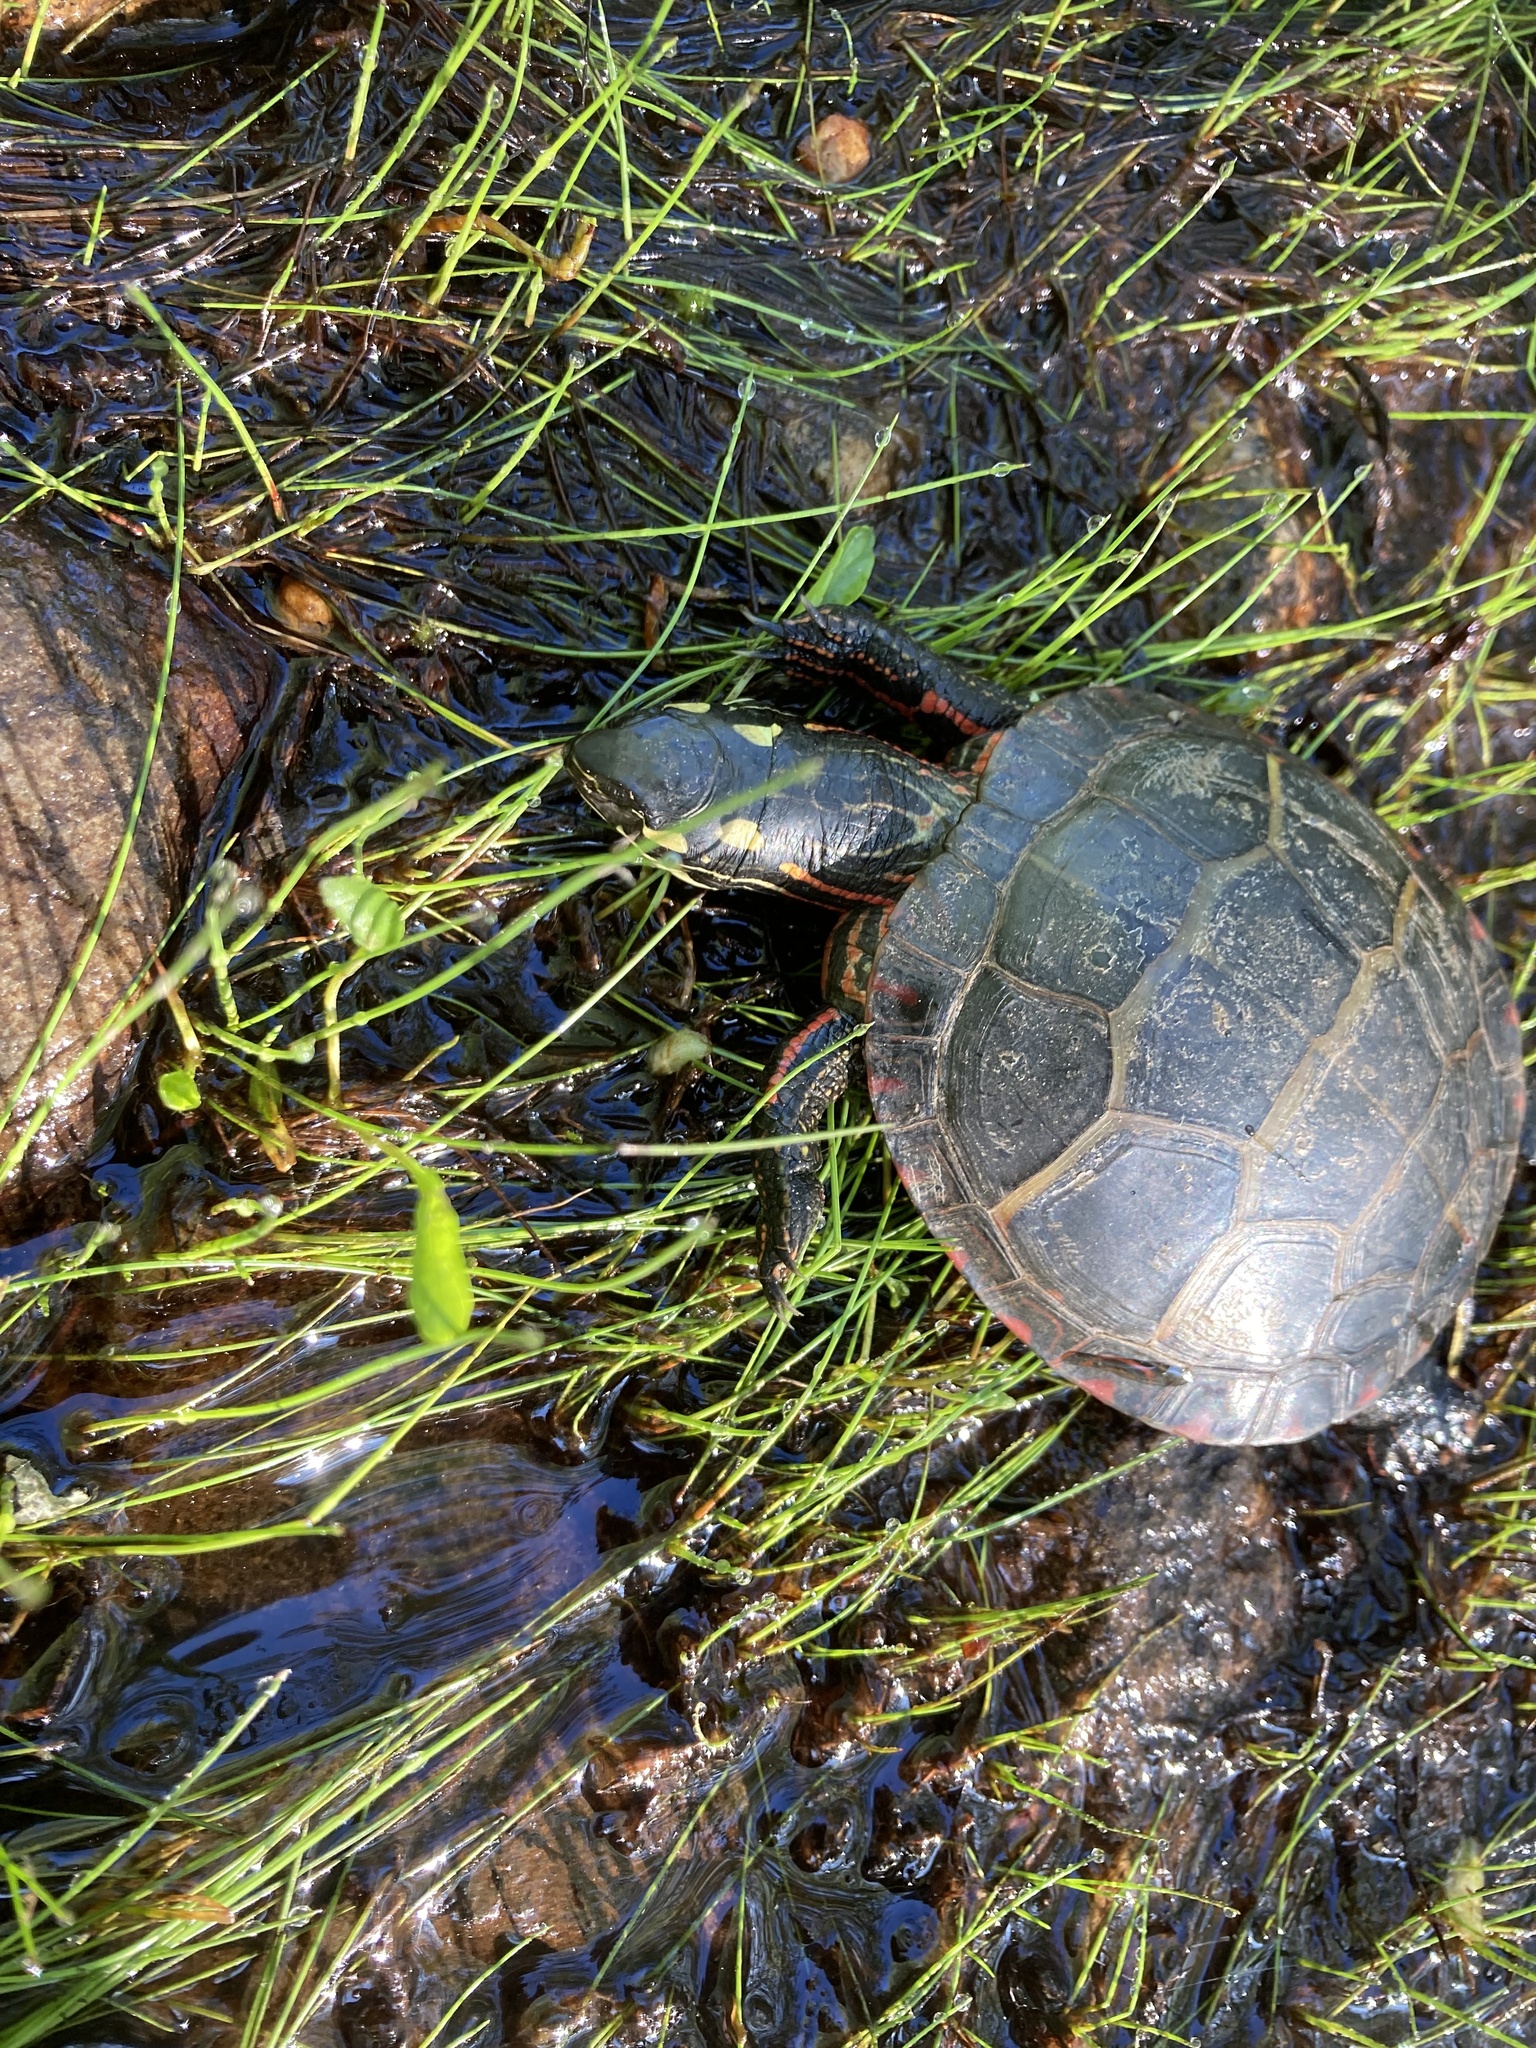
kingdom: Animalia
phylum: Chordata
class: Testudines
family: Emydidae
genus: Chrysemys
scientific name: Chrysemys picta
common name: Painted turtle
